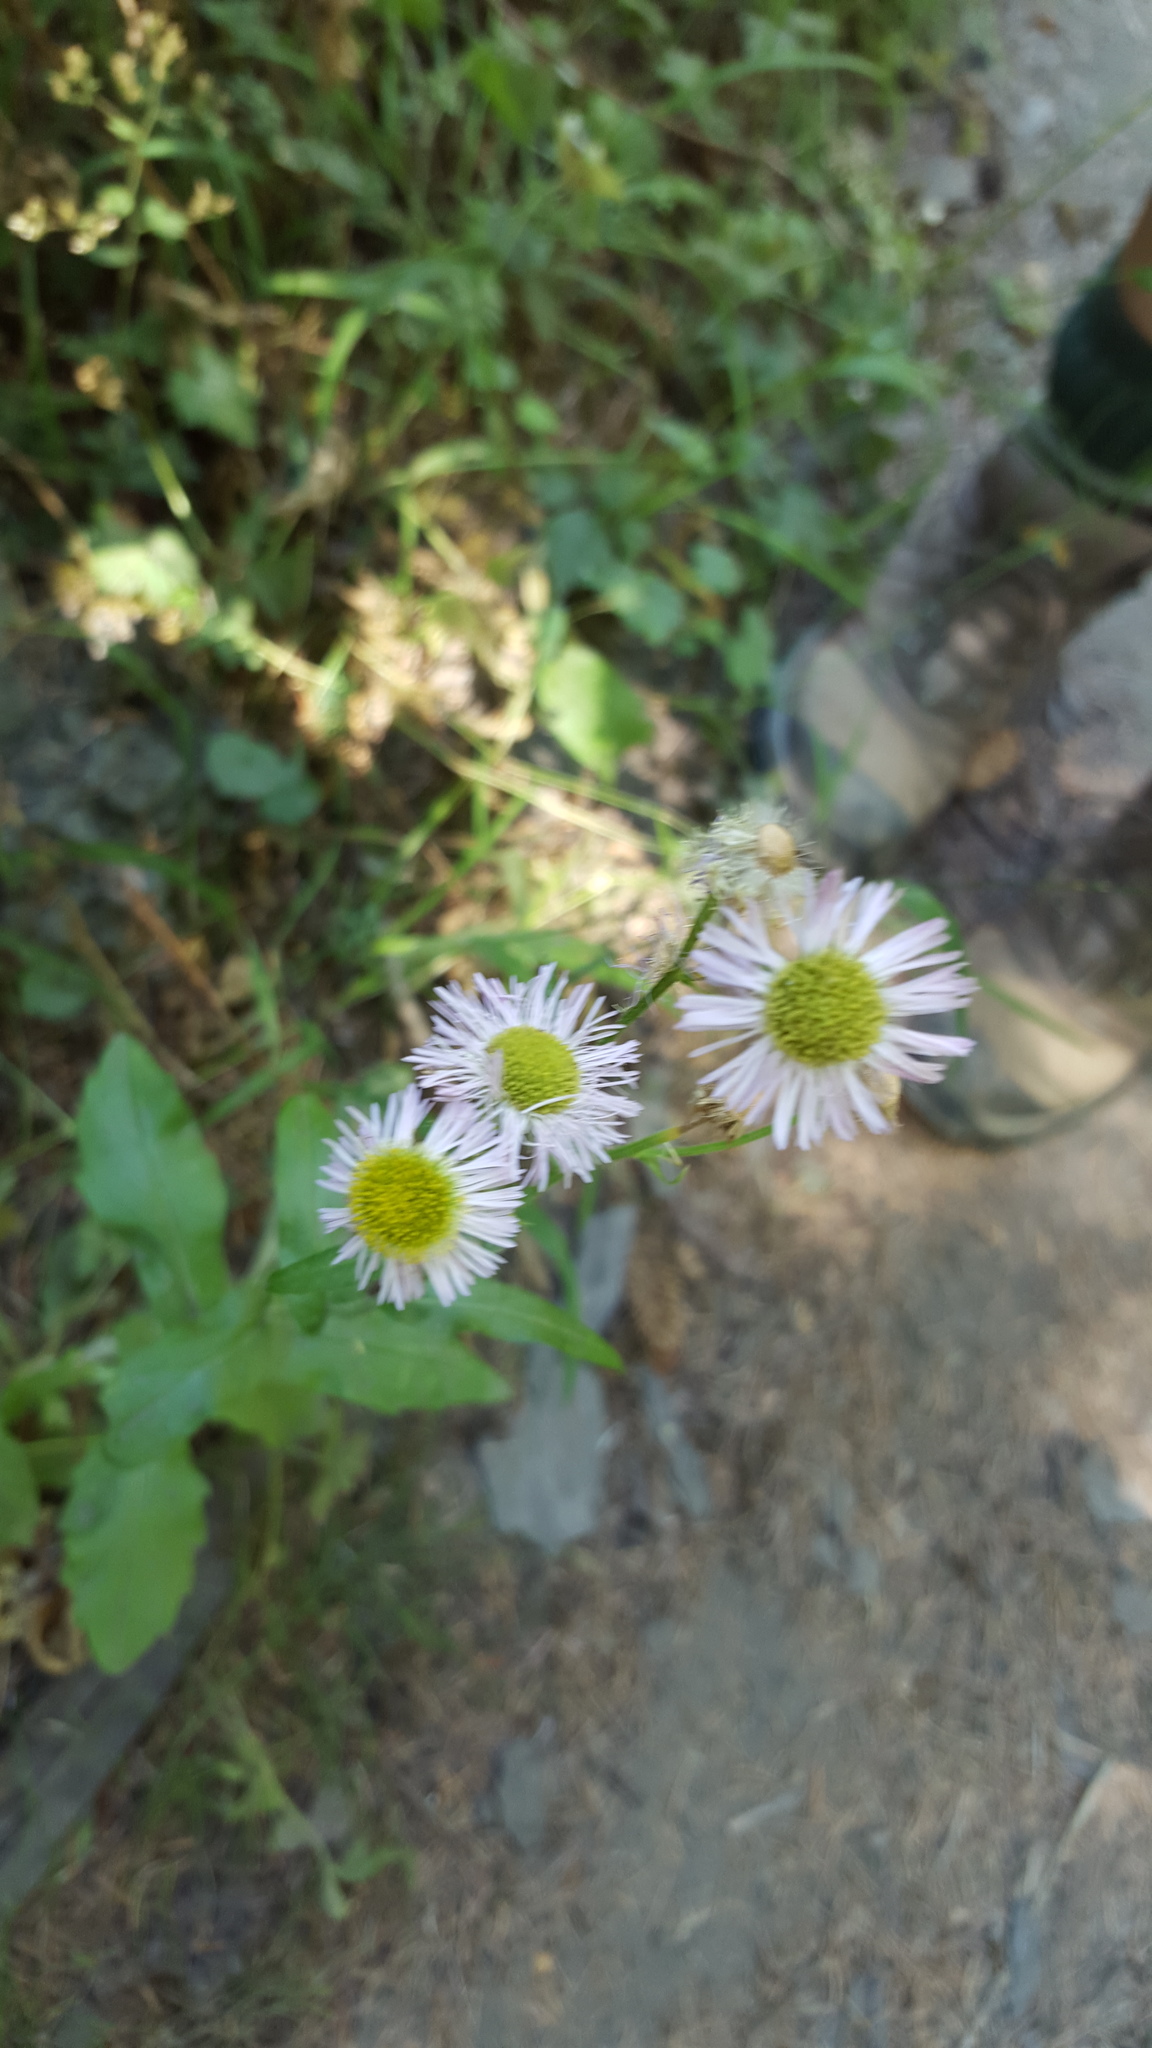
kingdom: Plantae
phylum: Tracheophyta
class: Magnoliopsida
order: Asterales
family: Asteraceae
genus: Erigeron
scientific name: Erigeron philadelphicus
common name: Robin's-plantain
